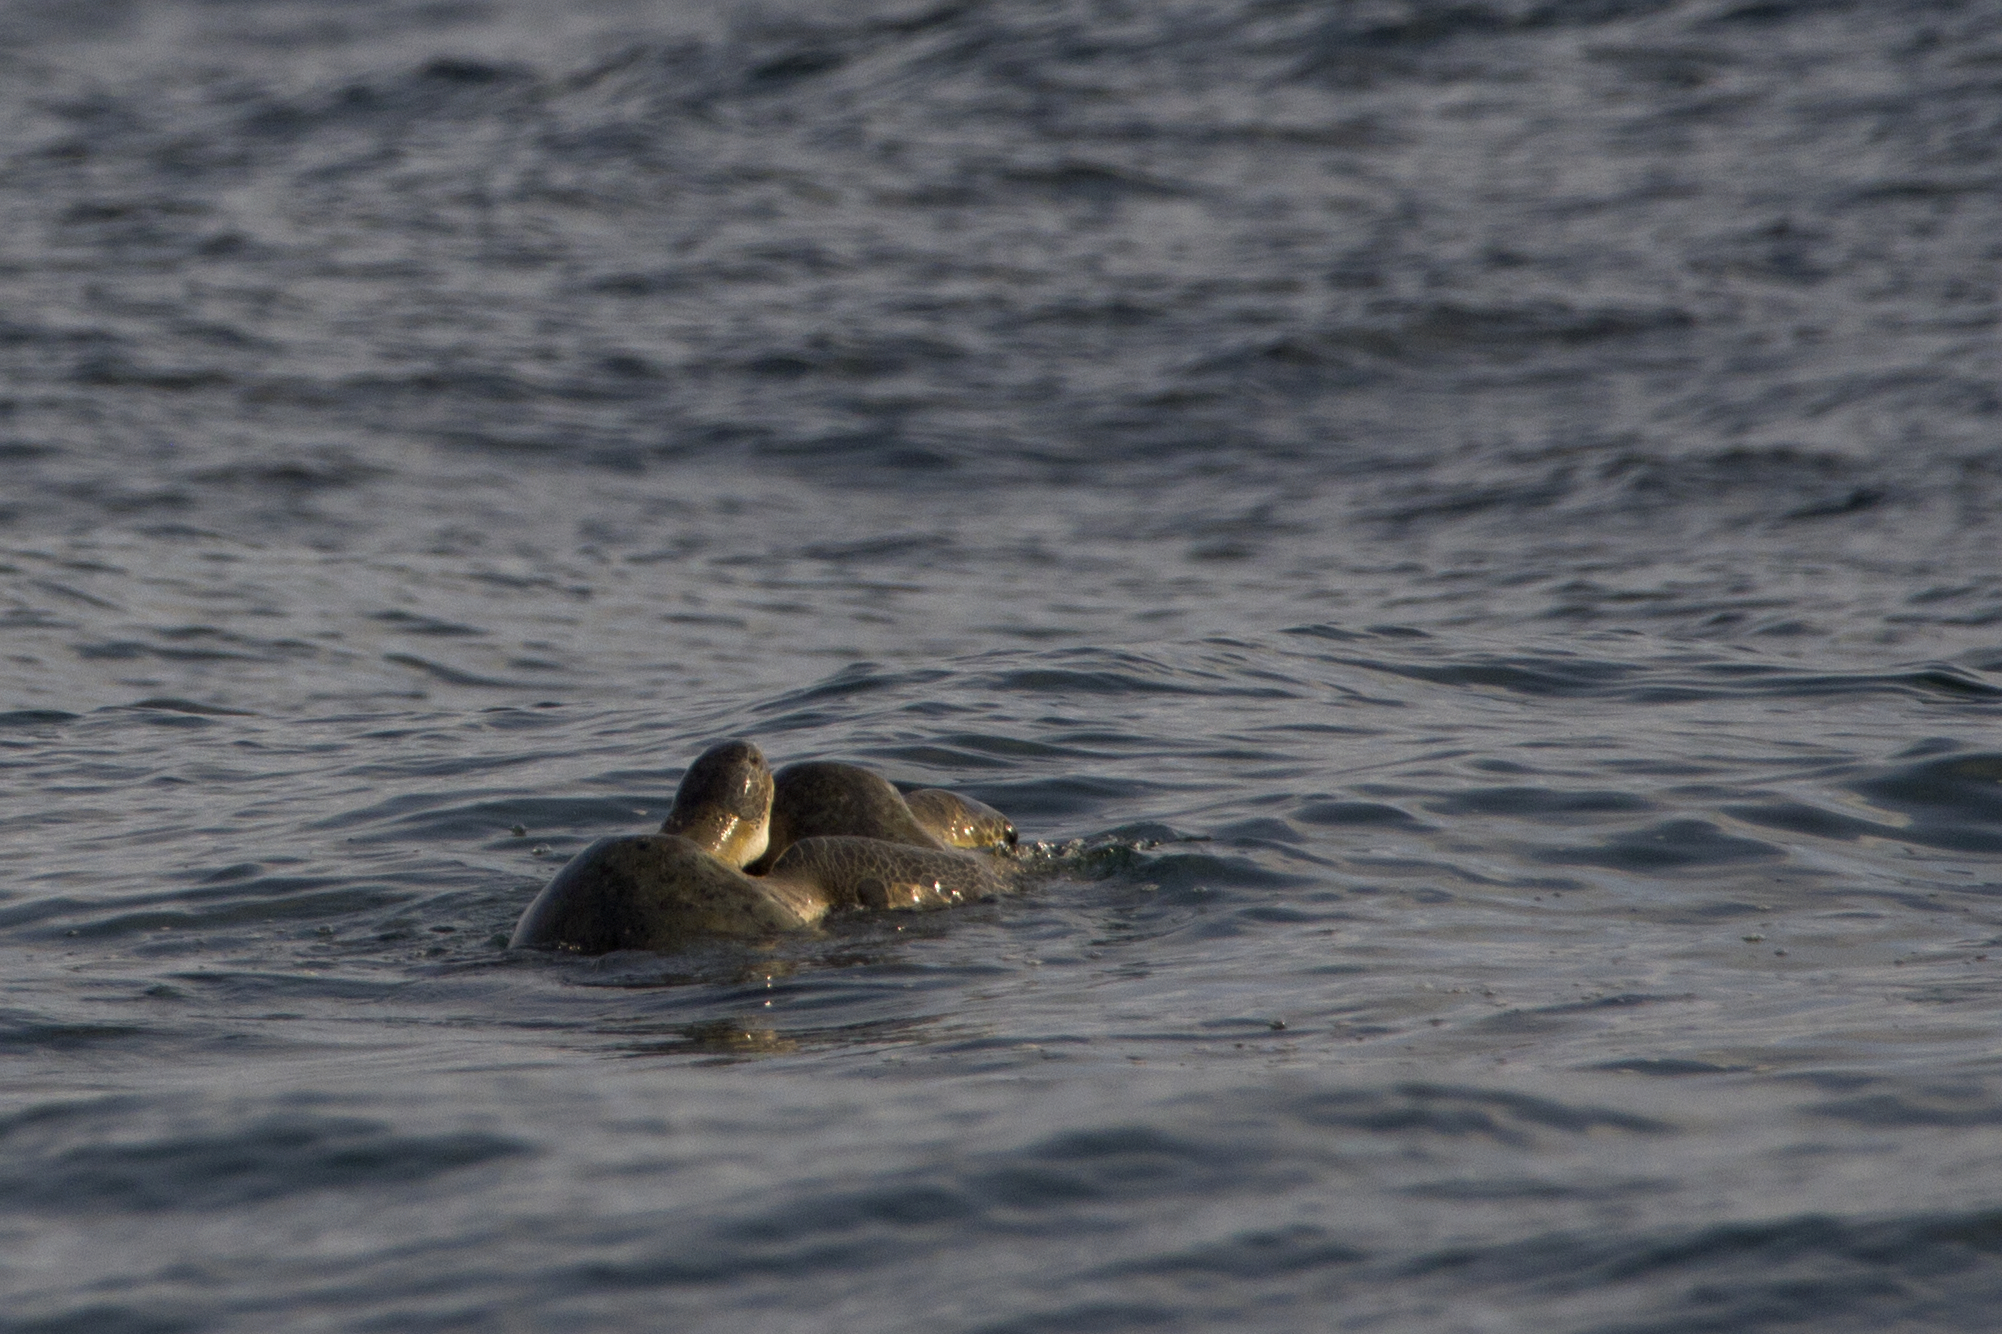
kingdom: Animalia
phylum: Chordata
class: Testudines
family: Cheloniidae
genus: Chelonia
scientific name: Chelonia mydas
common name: Green turtle
